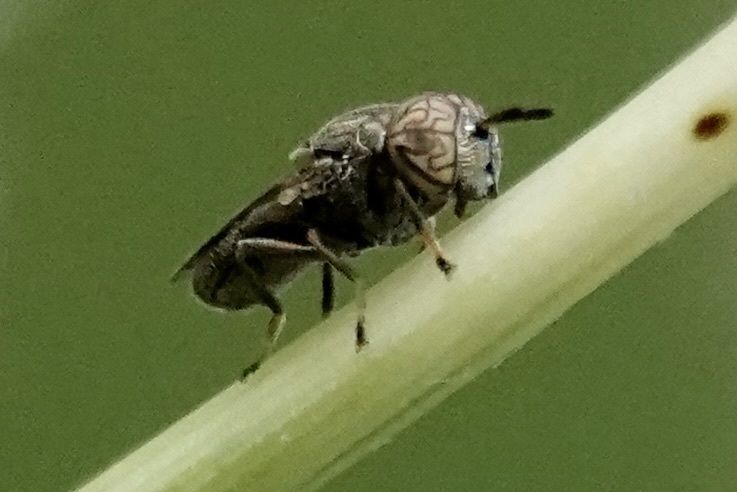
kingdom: Animalia
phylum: Arthropoda
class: Insecta
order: Diptera
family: Syrphidae
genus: Orthonevra
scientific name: Orthonevra nitida
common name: Wavy mucksucker
